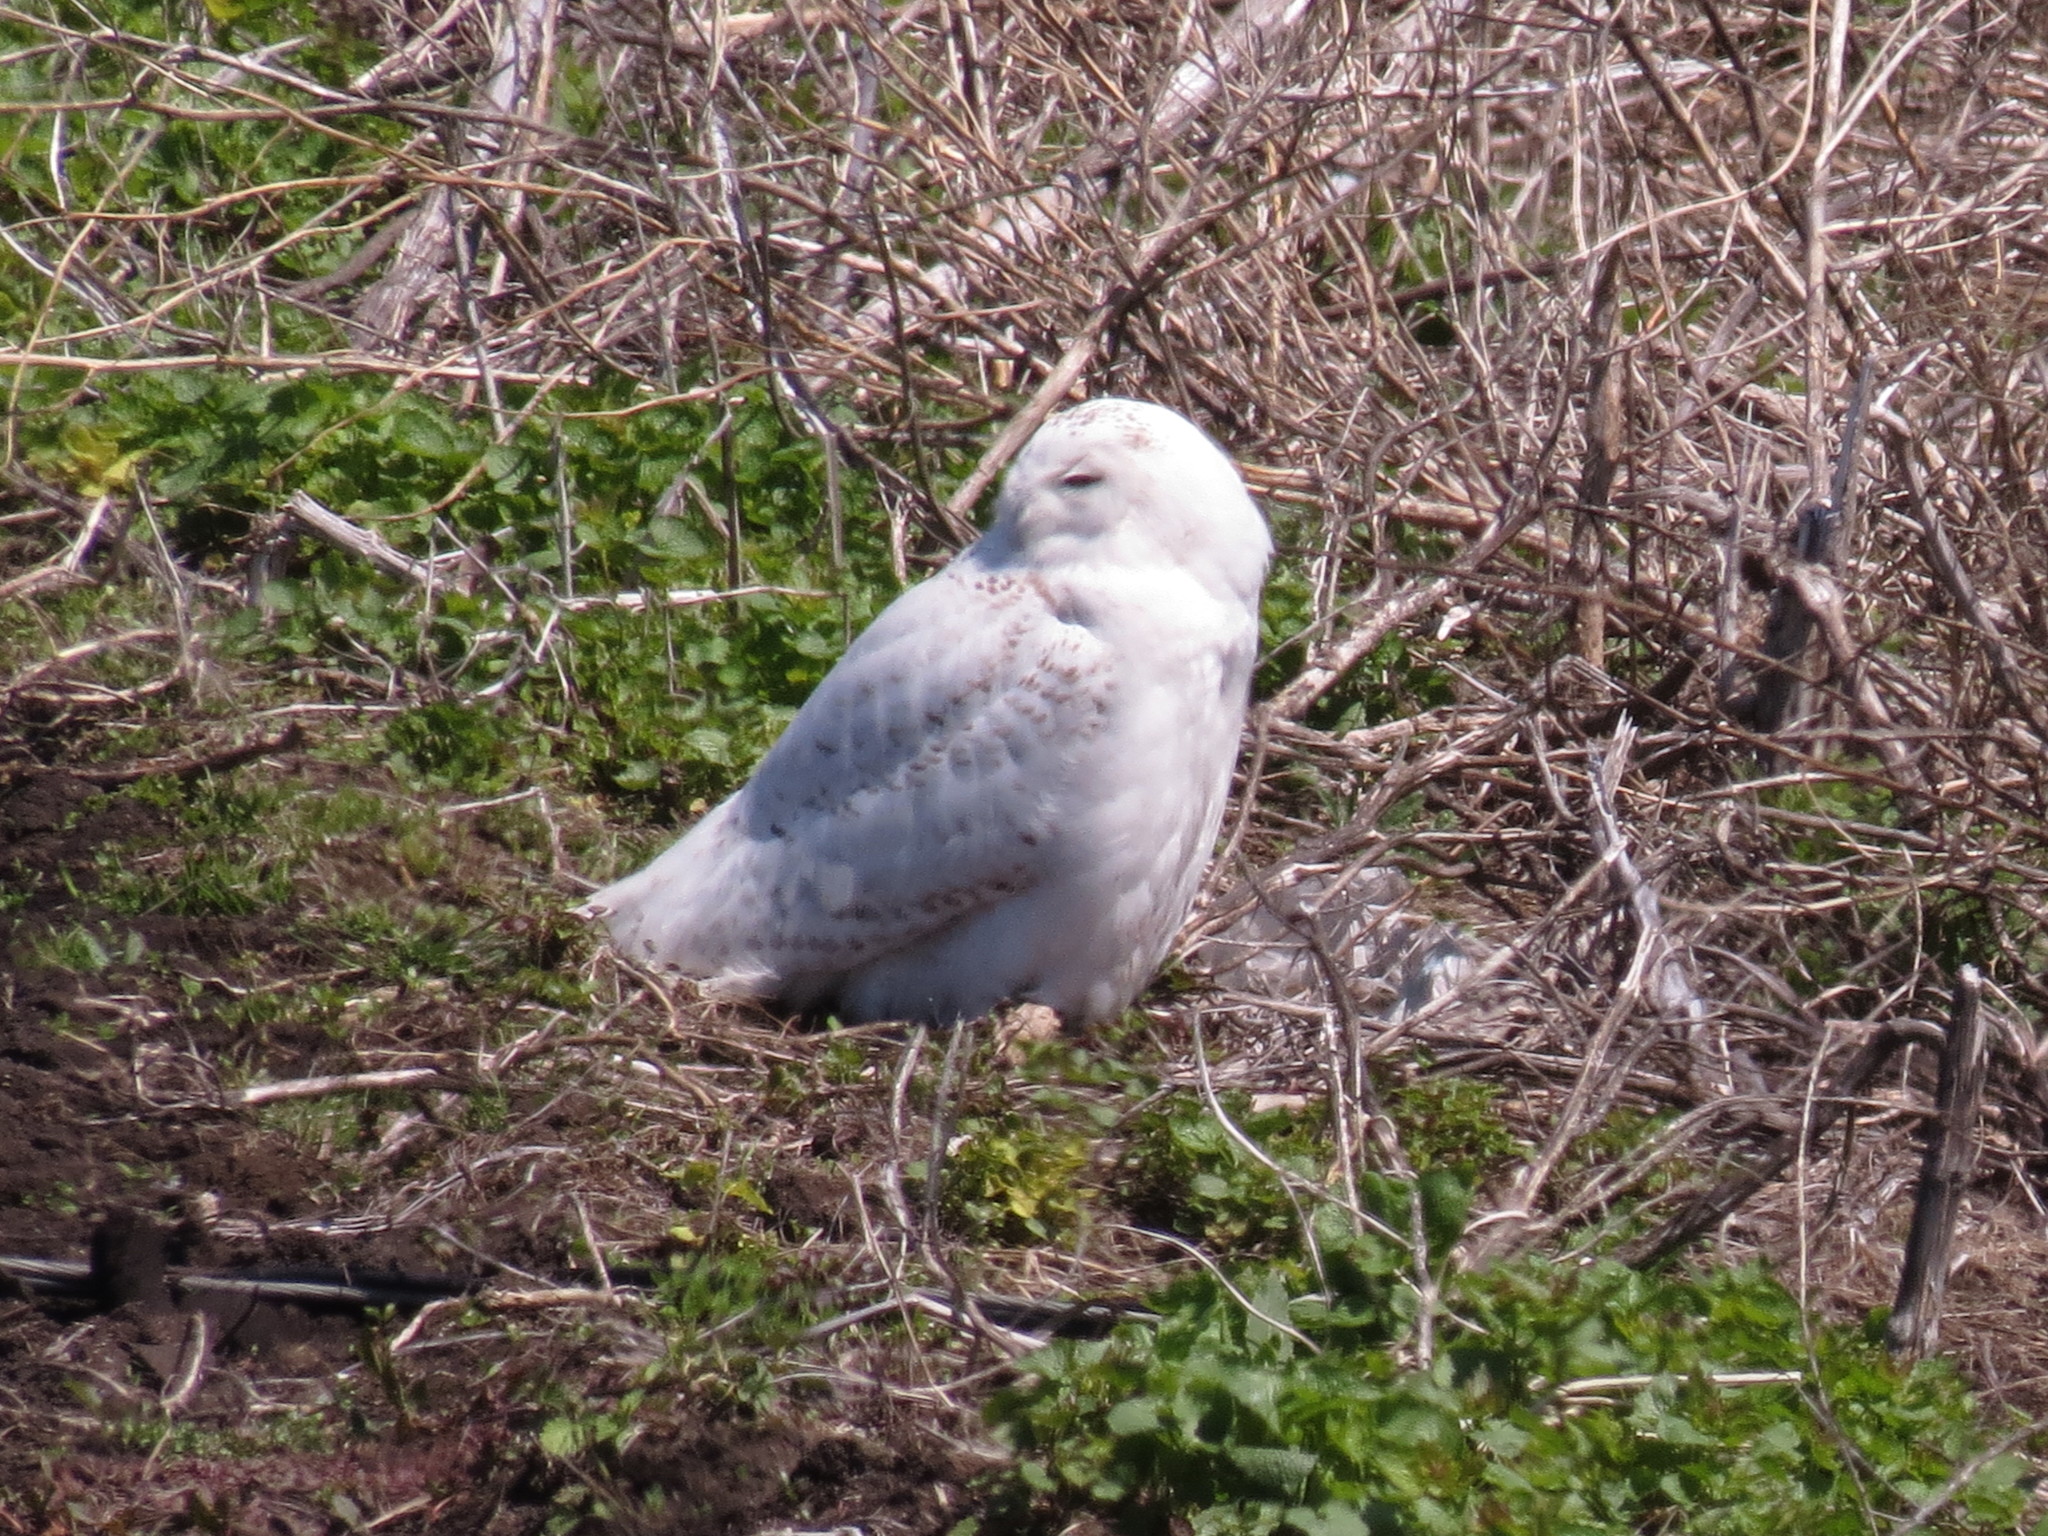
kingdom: Animalia
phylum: Chordata
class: Aves
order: Strigiformes
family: Strigidae
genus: Bubo
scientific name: Bubo scandiacus
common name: Snowy owl
